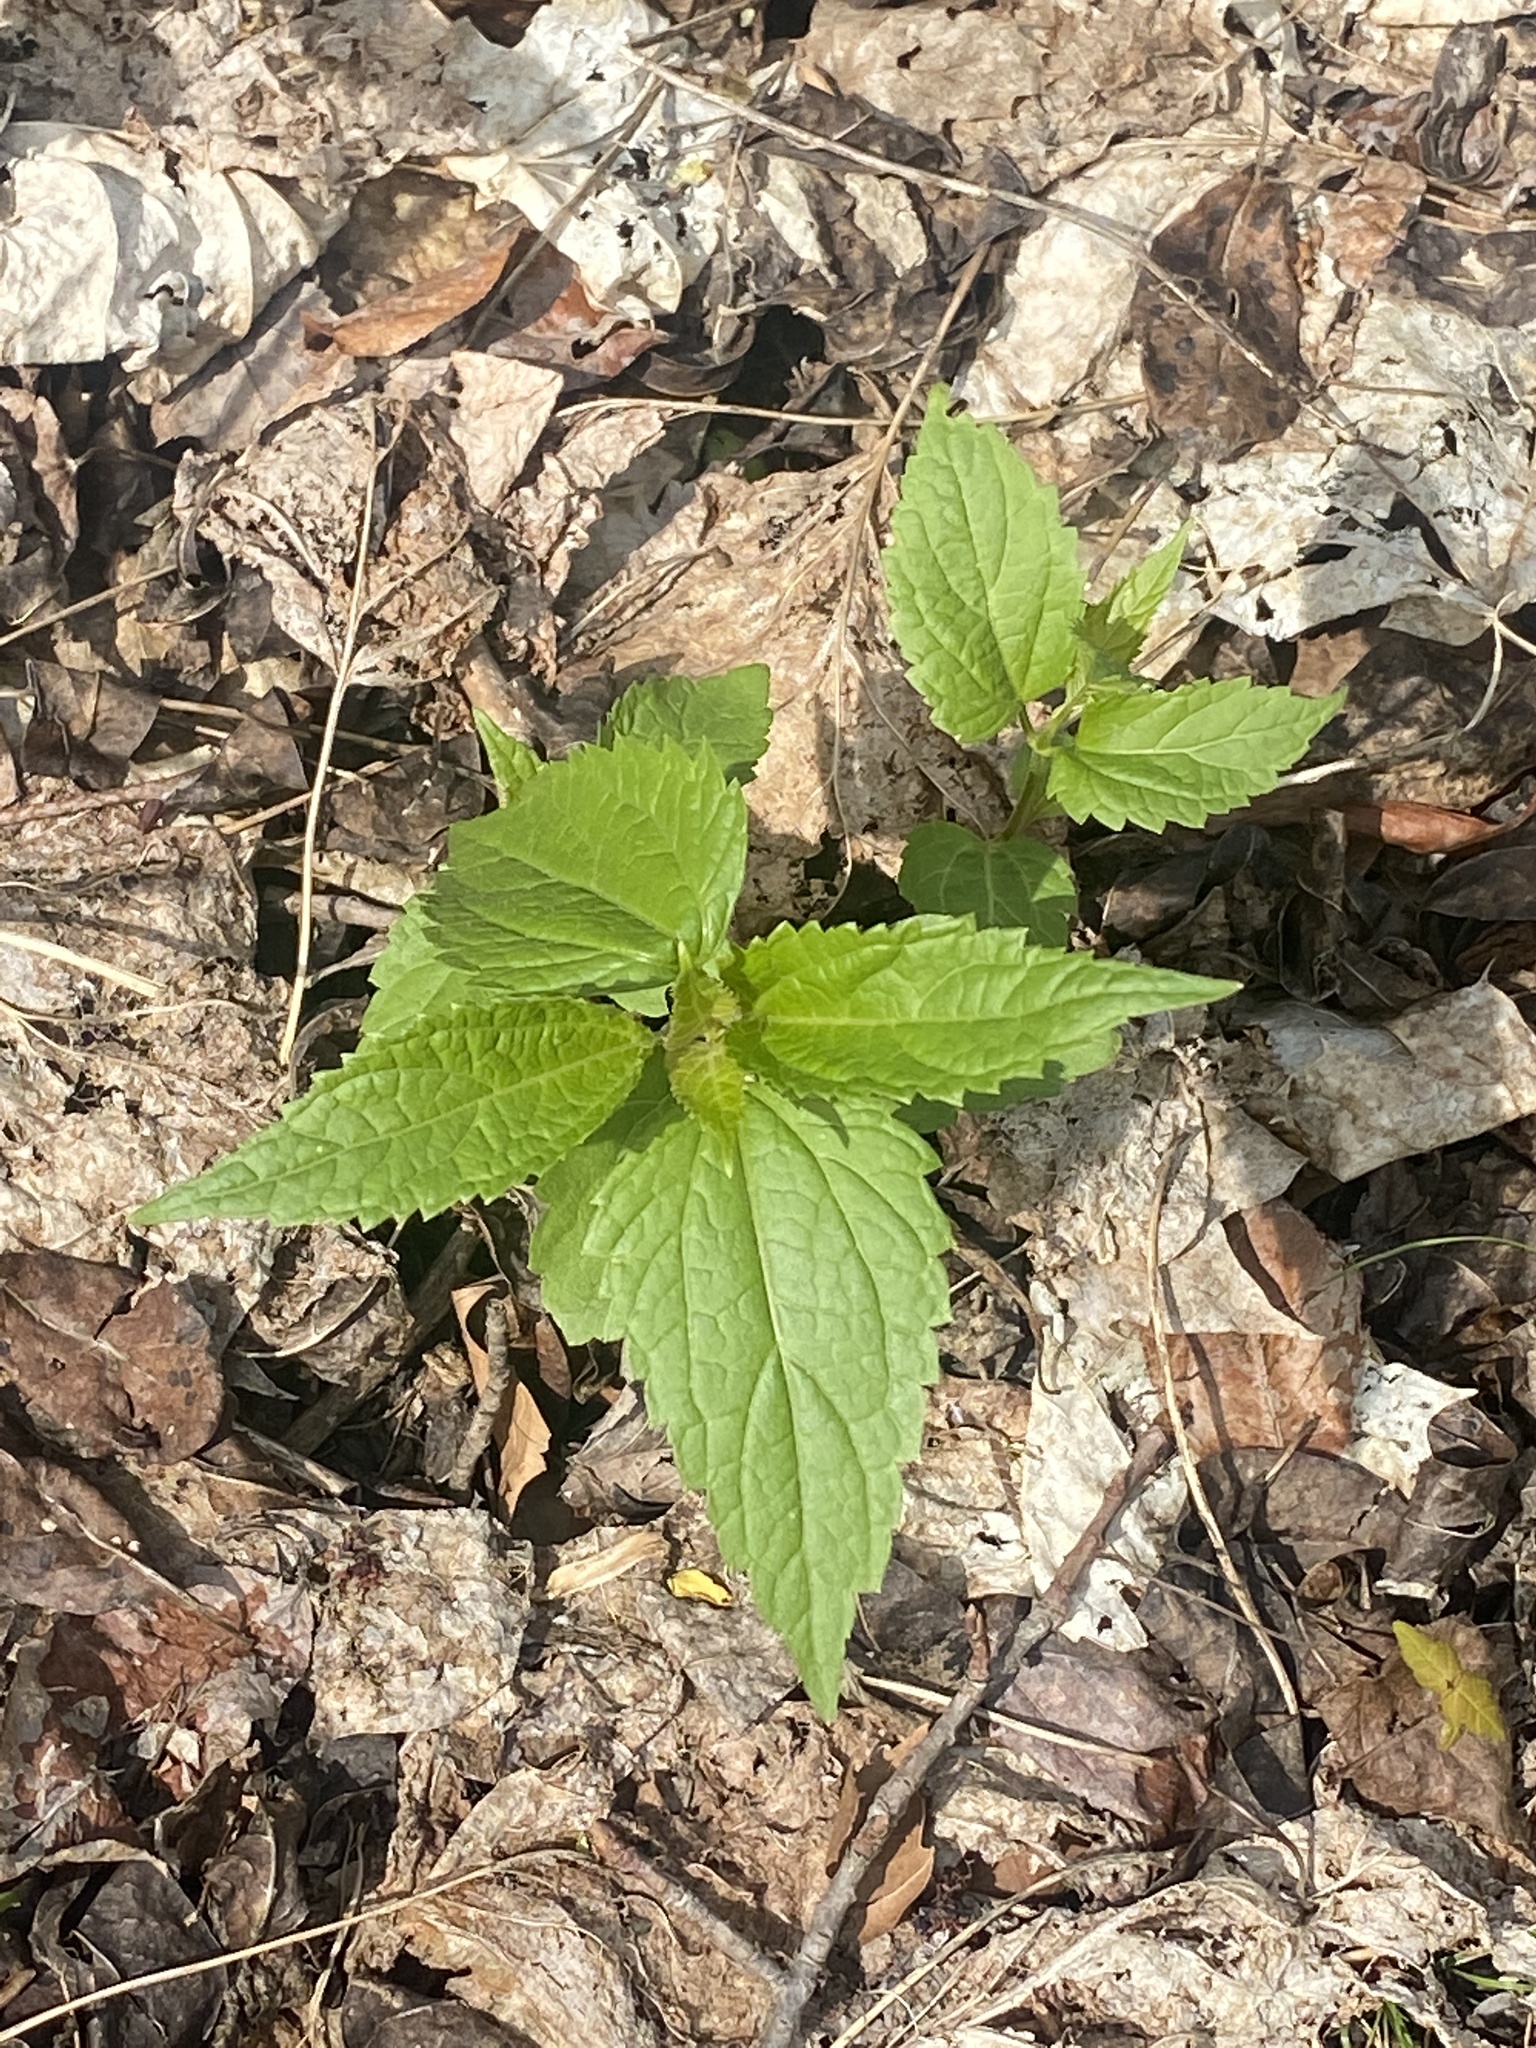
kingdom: Plantae
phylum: Tracheophyta
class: Magnoliopsida
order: Asterales
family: Asteraceae
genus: Ageratina
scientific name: Ageratina altissima
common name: White snakeroot
